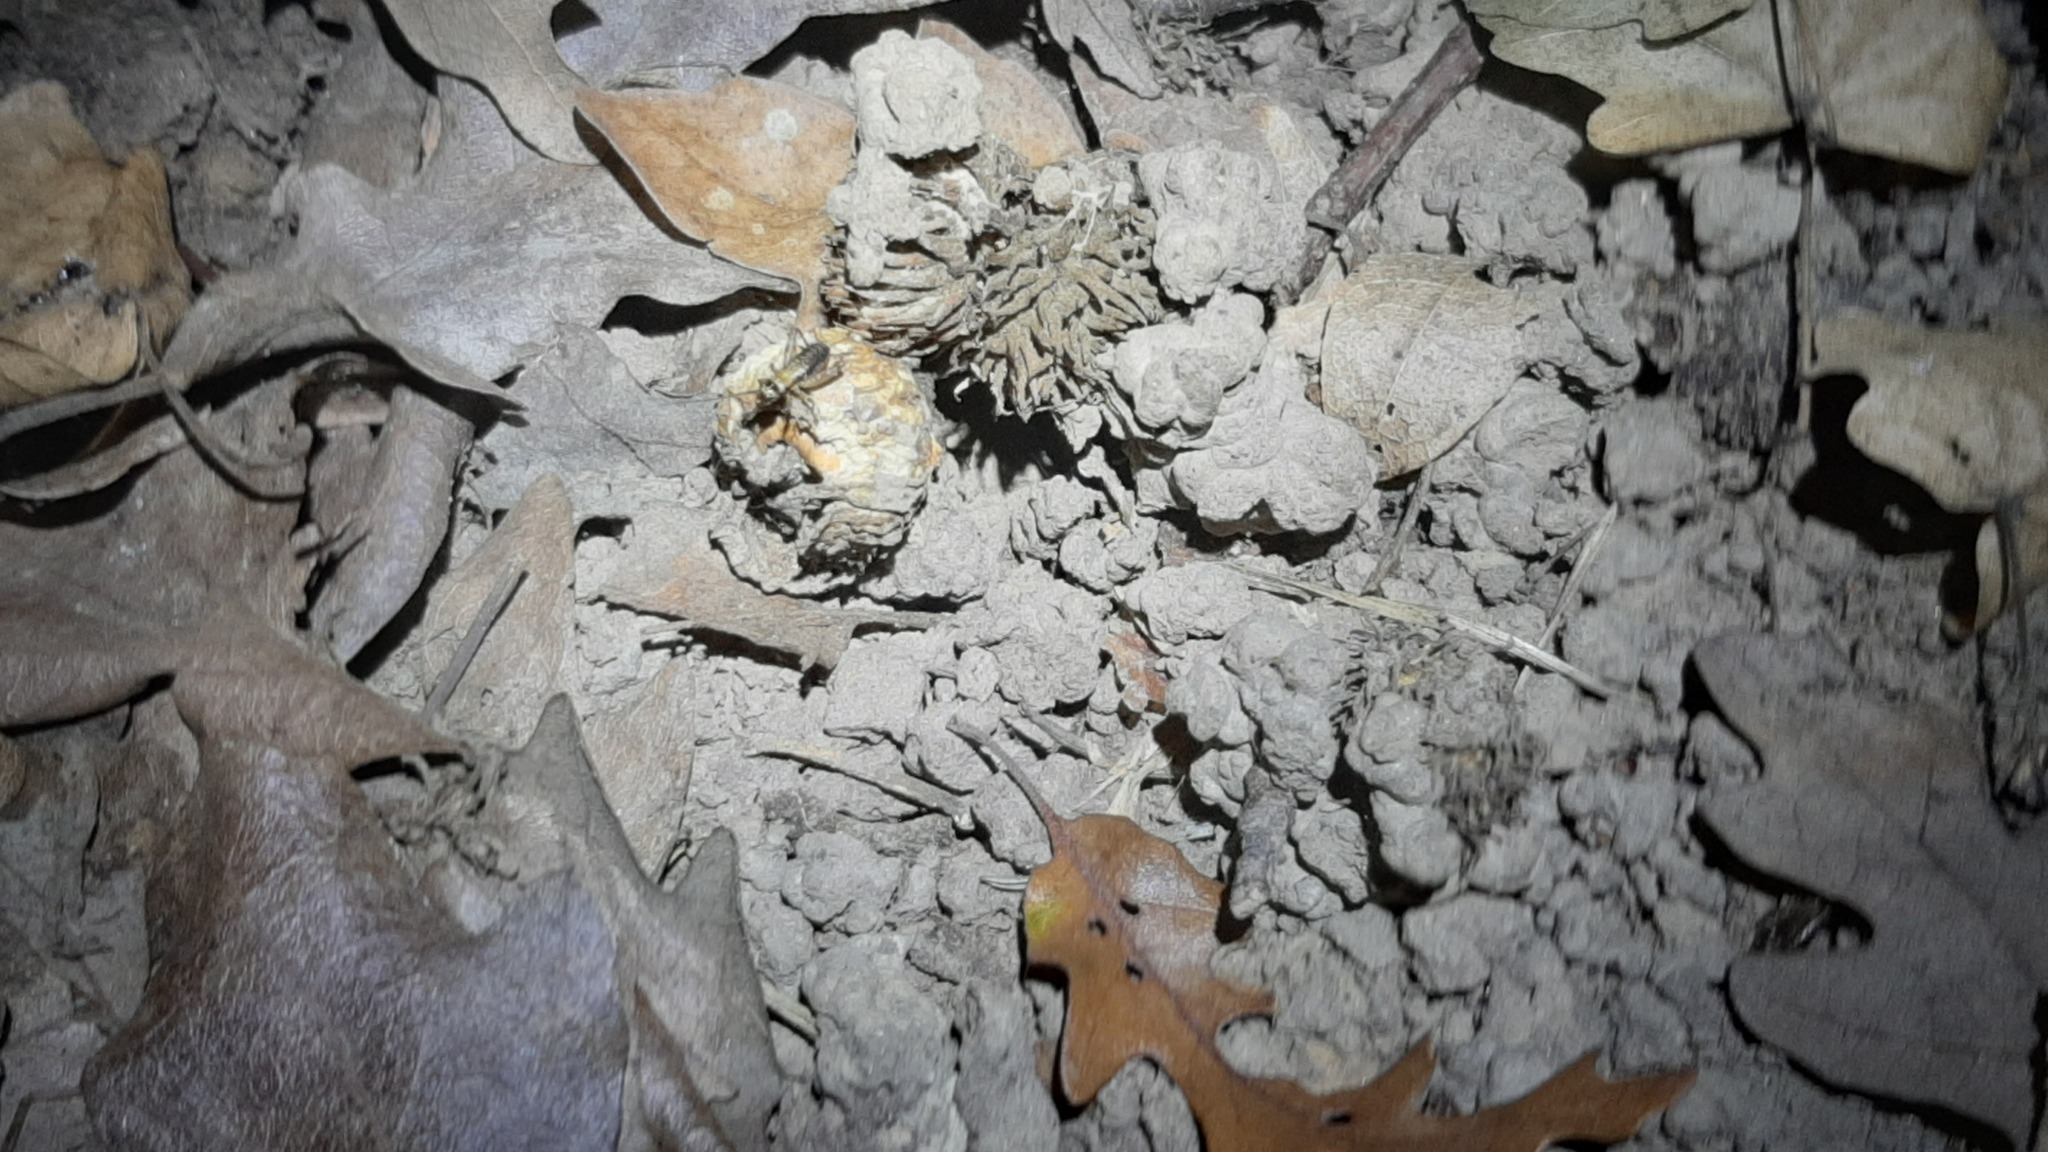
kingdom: Animalia
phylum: Arthropoda
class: Insecta
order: Orthoptera
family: Trigonidiidae
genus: Nemobius
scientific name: Nemobius sylvestris
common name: Wood-cricket
